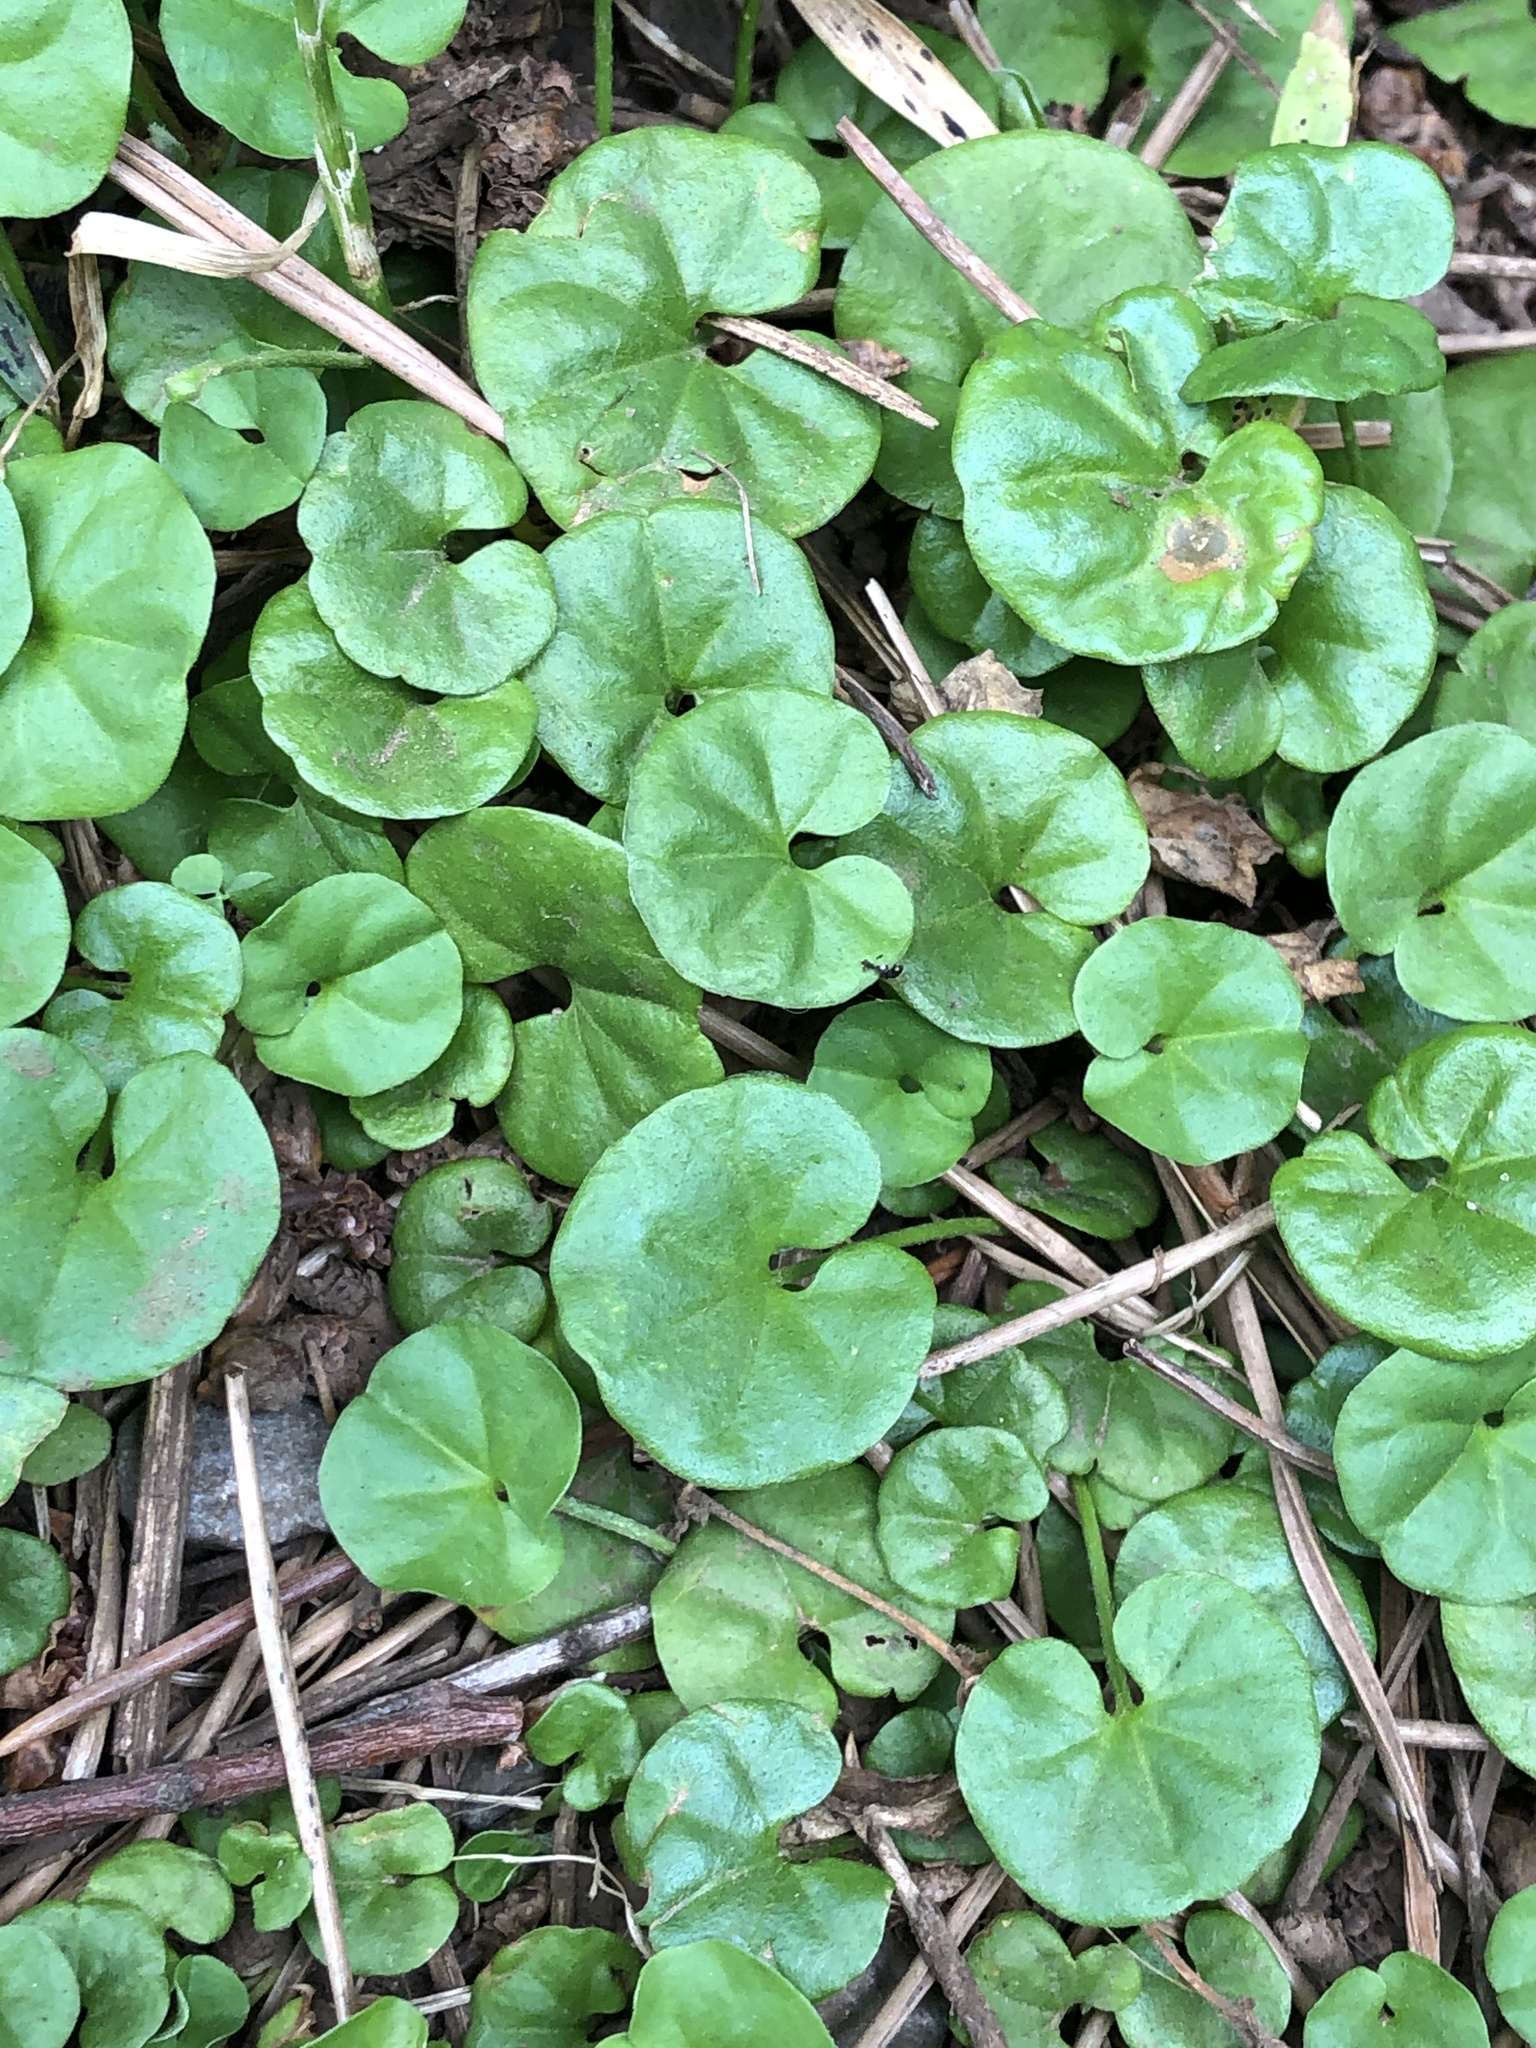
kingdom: Plantae
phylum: Tracheophyta
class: Magnoliopsida
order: Solanales
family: Convolvulaceae
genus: Dichondra
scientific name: Dichondra micrantha
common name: Kidneyweed
